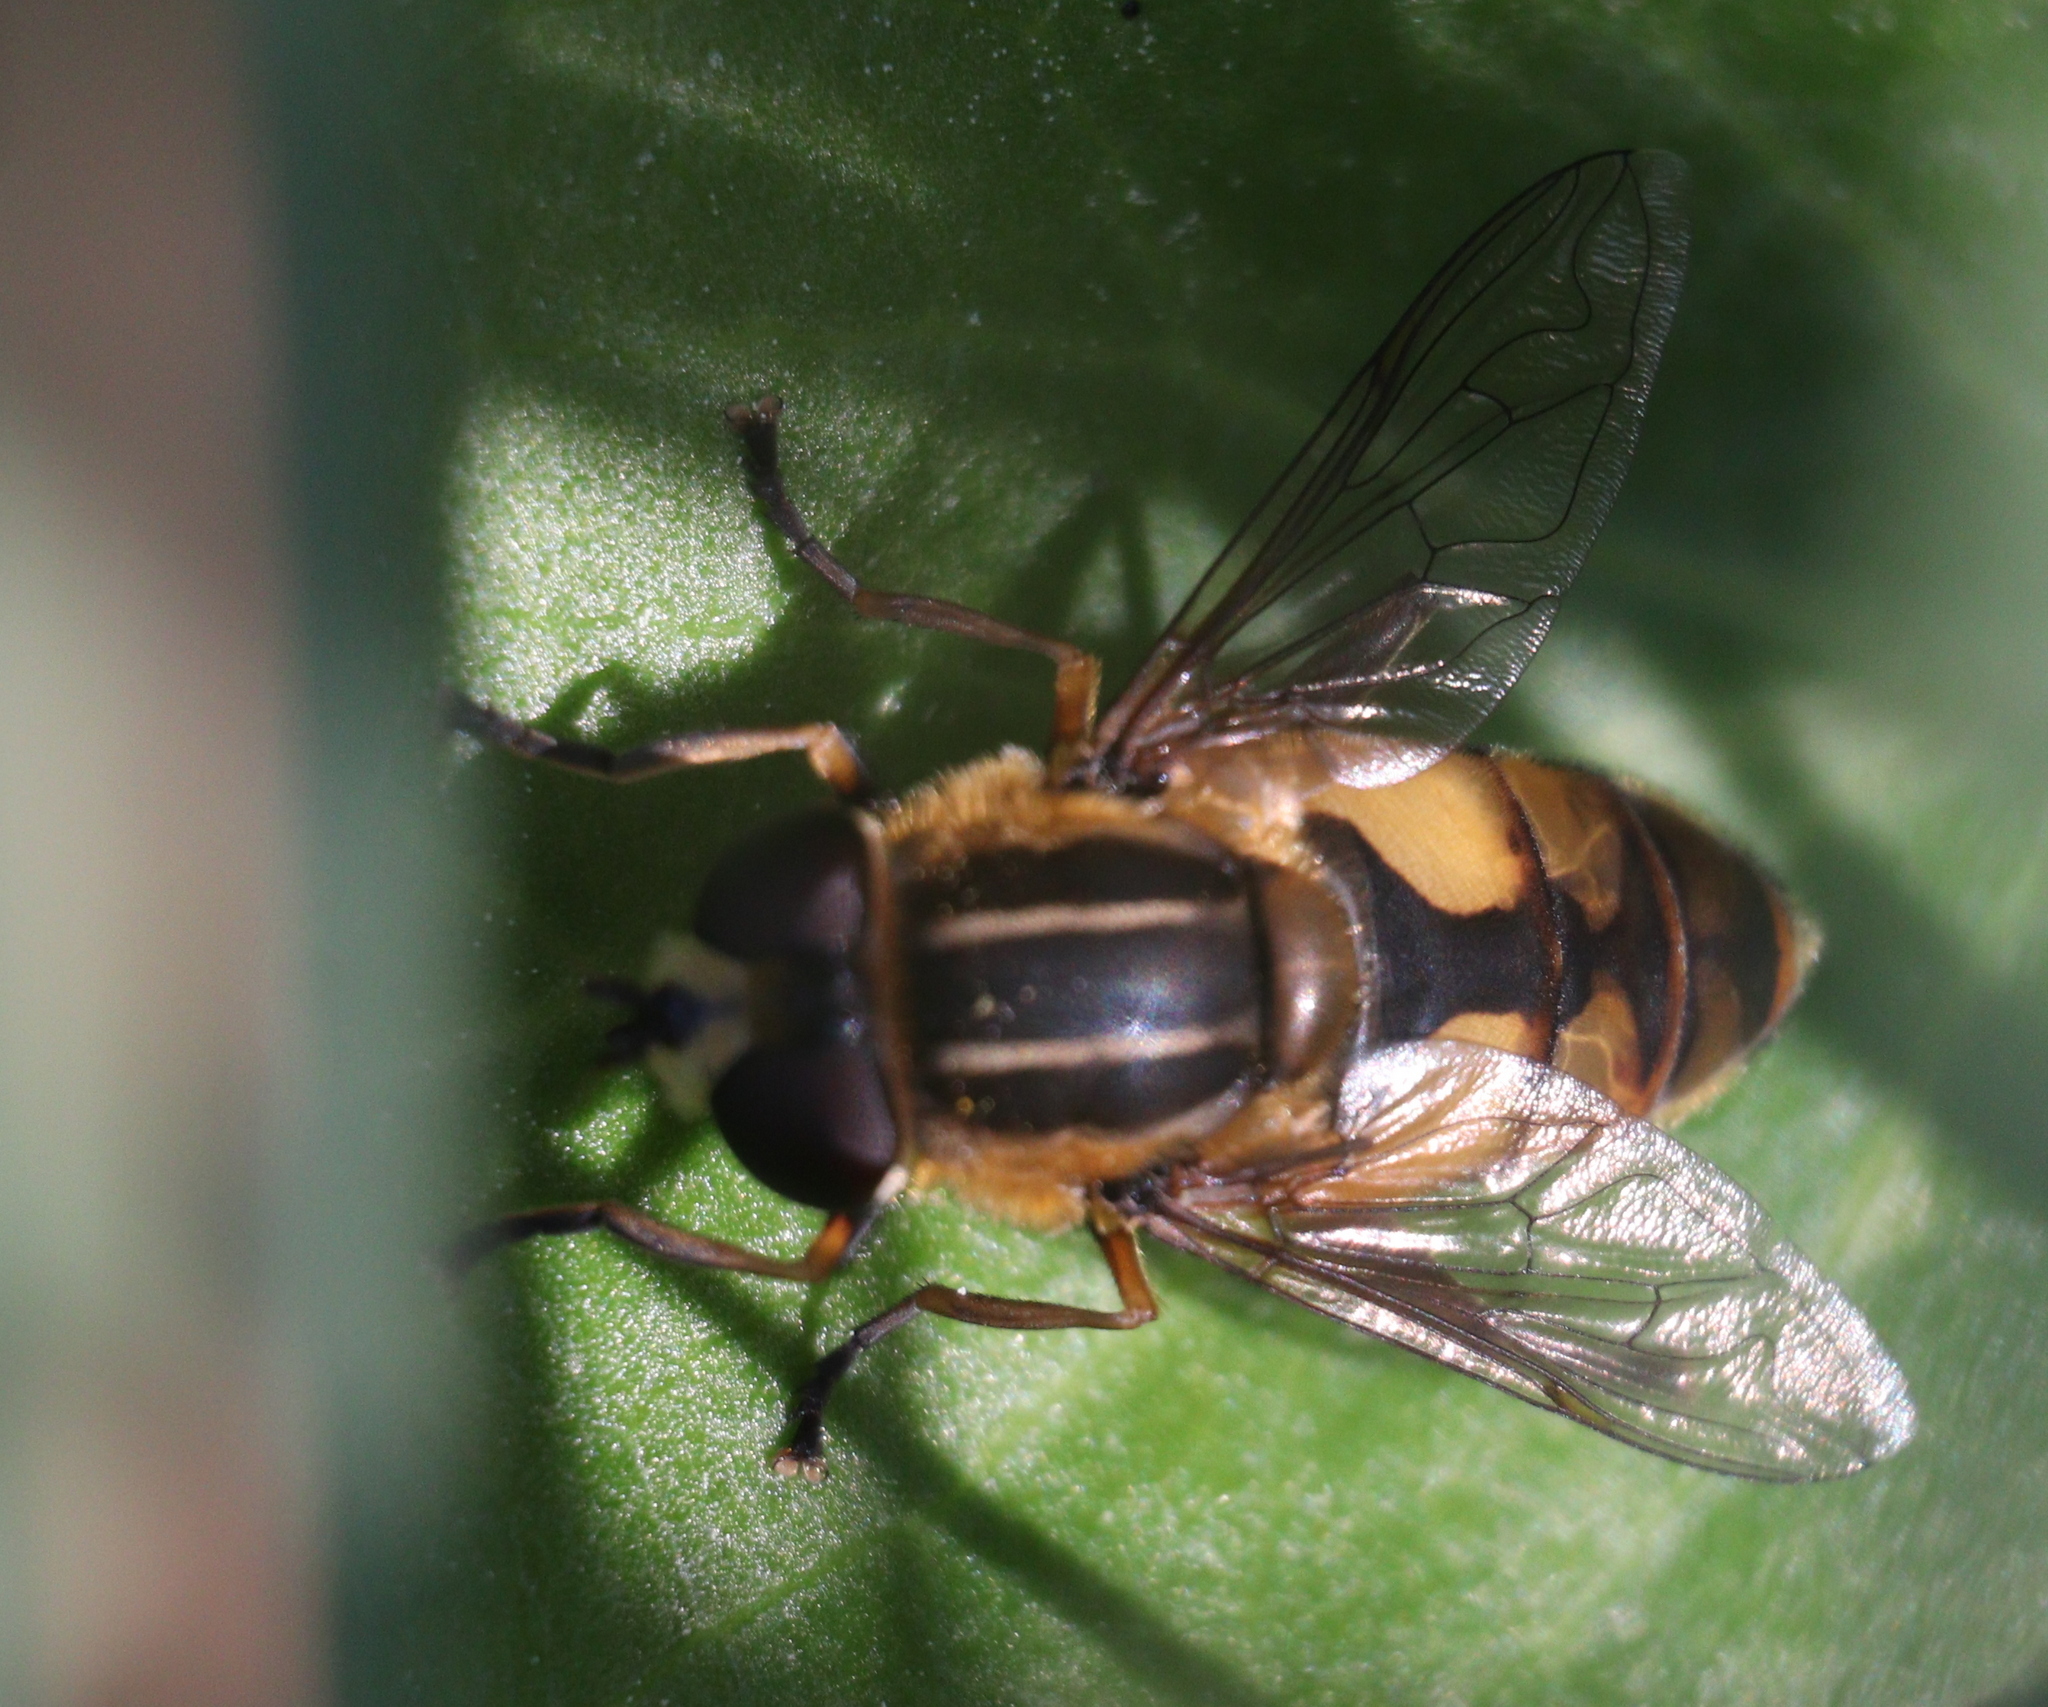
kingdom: Animalia
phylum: Arthropoda
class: Insecta
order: Diptera
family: Syrphidae
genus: Helophilus
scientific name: Helophilus hybridus
